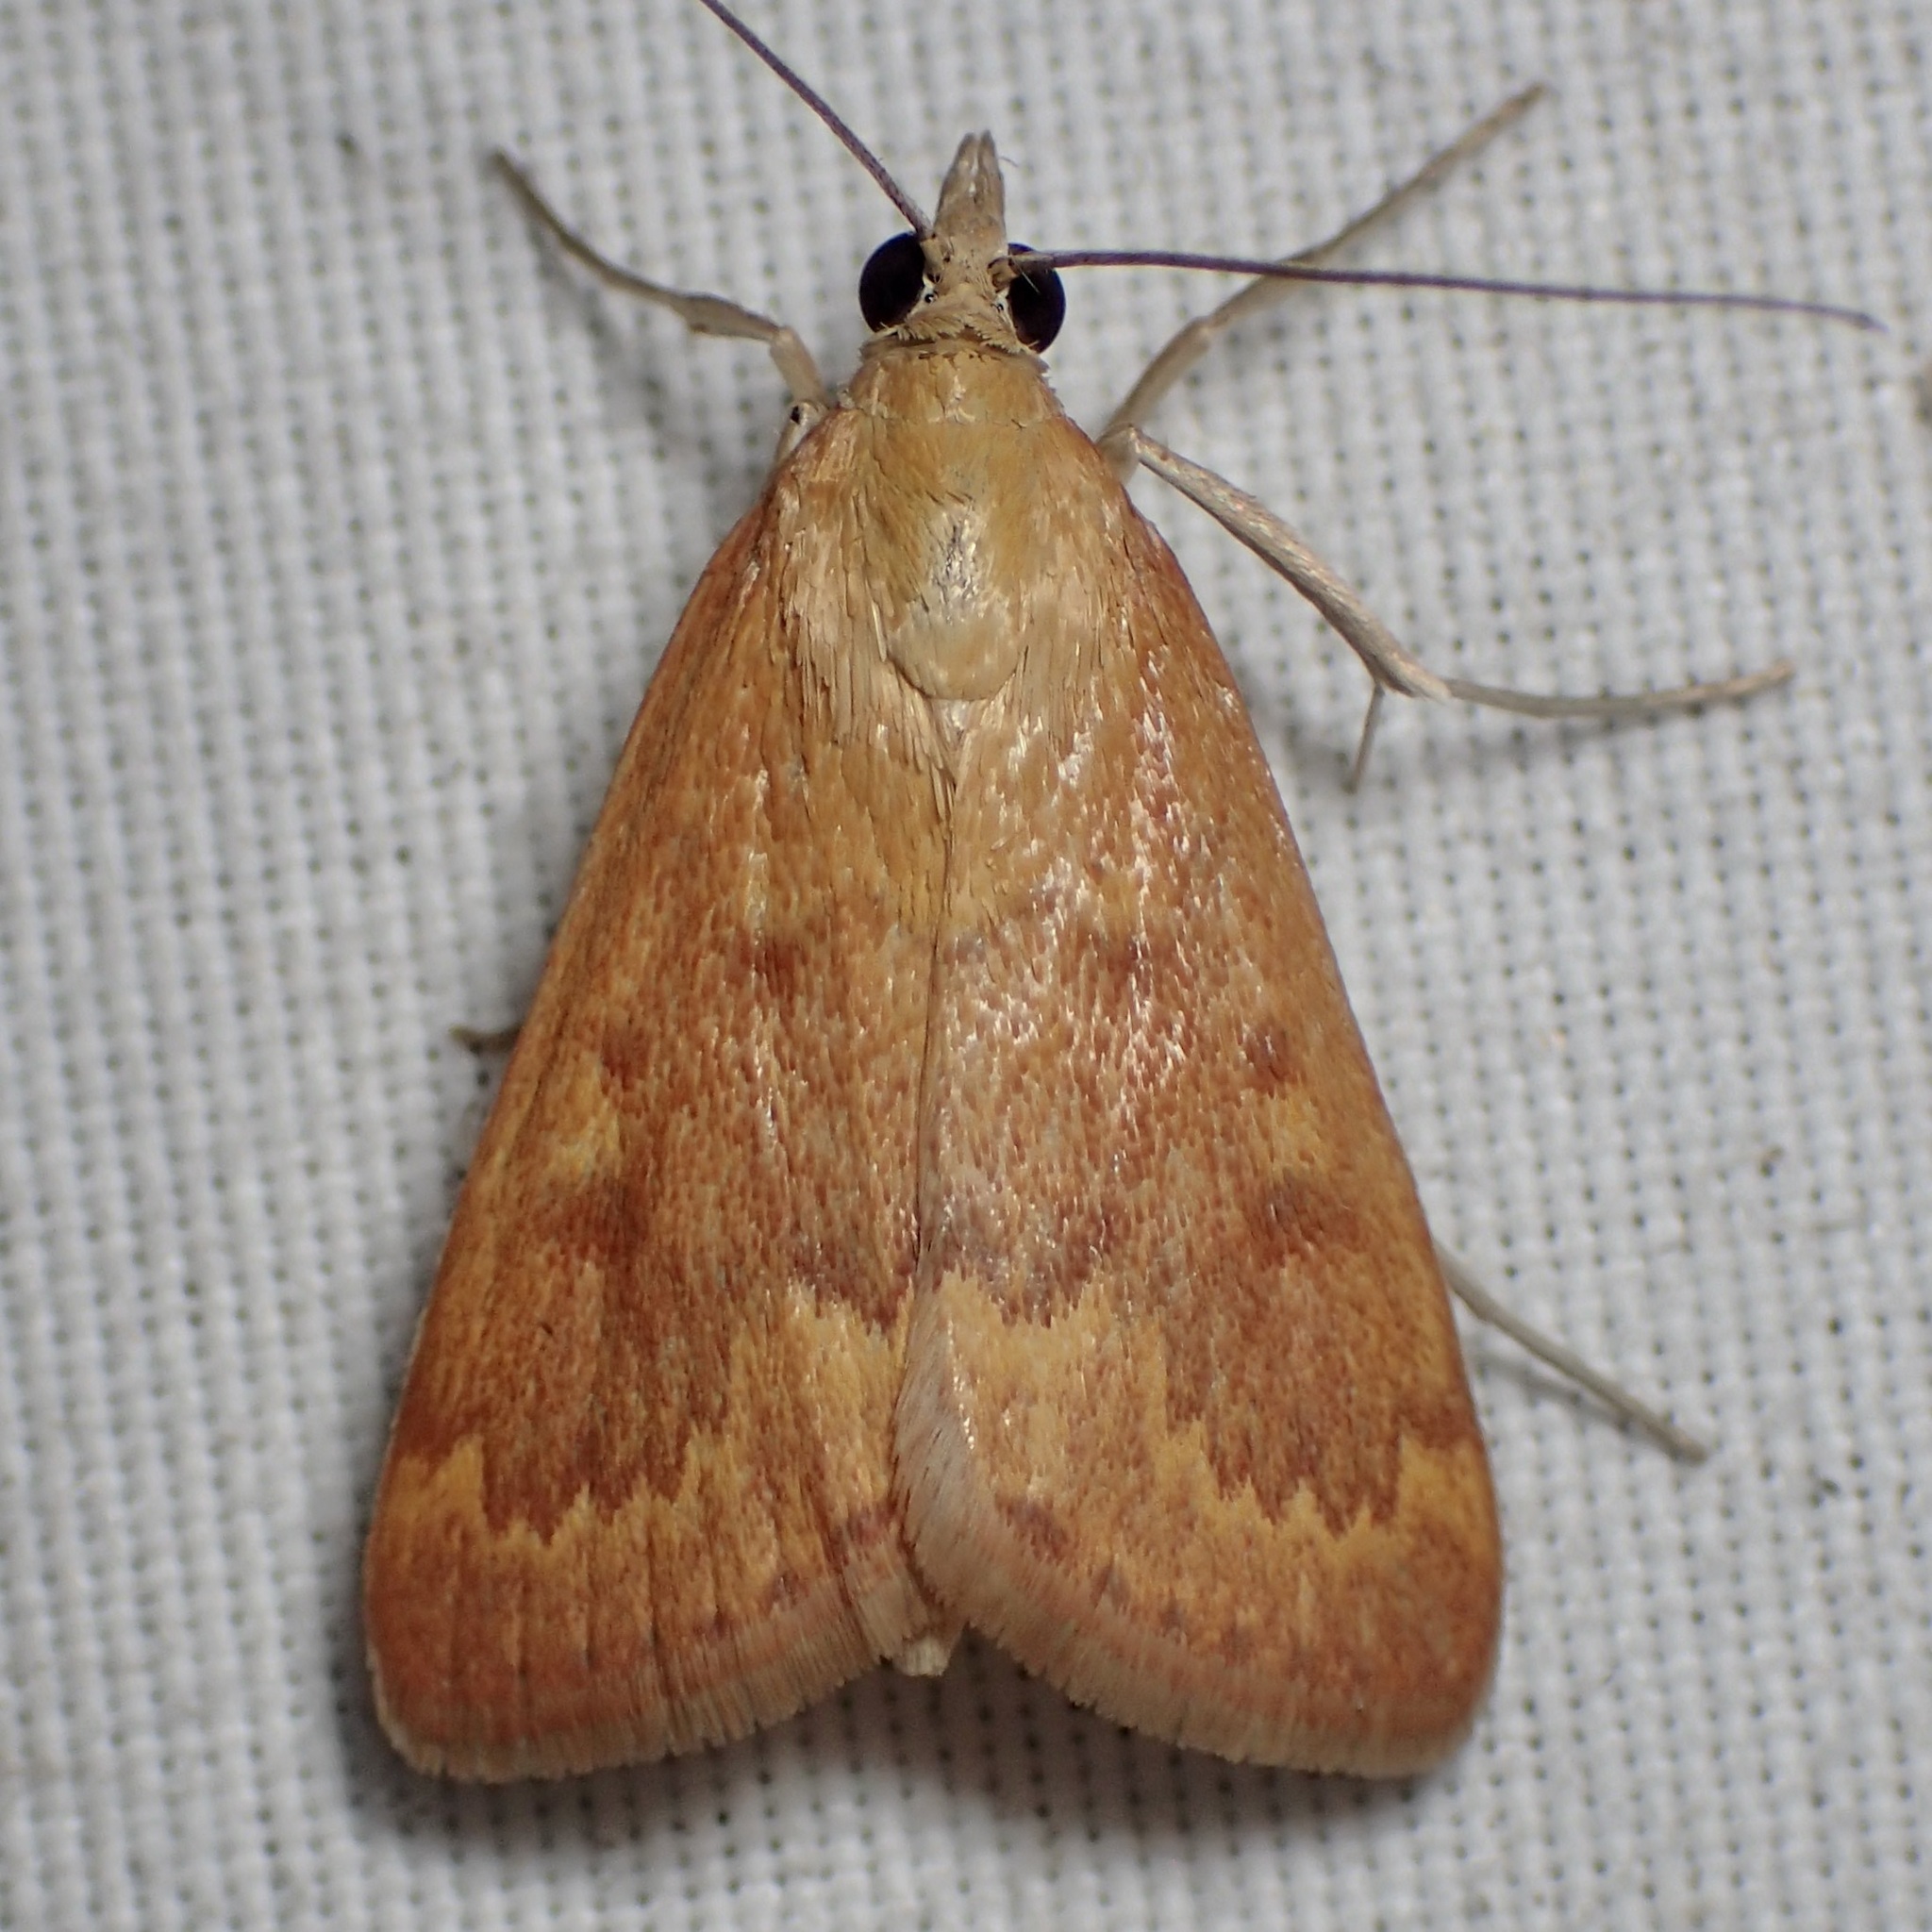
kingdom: Animalia
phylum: Arthropoda
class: Insecta
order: Lepidoptera
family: Crambidae
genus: Achyra
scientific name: Achyra rantalis
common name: Garden webworm
